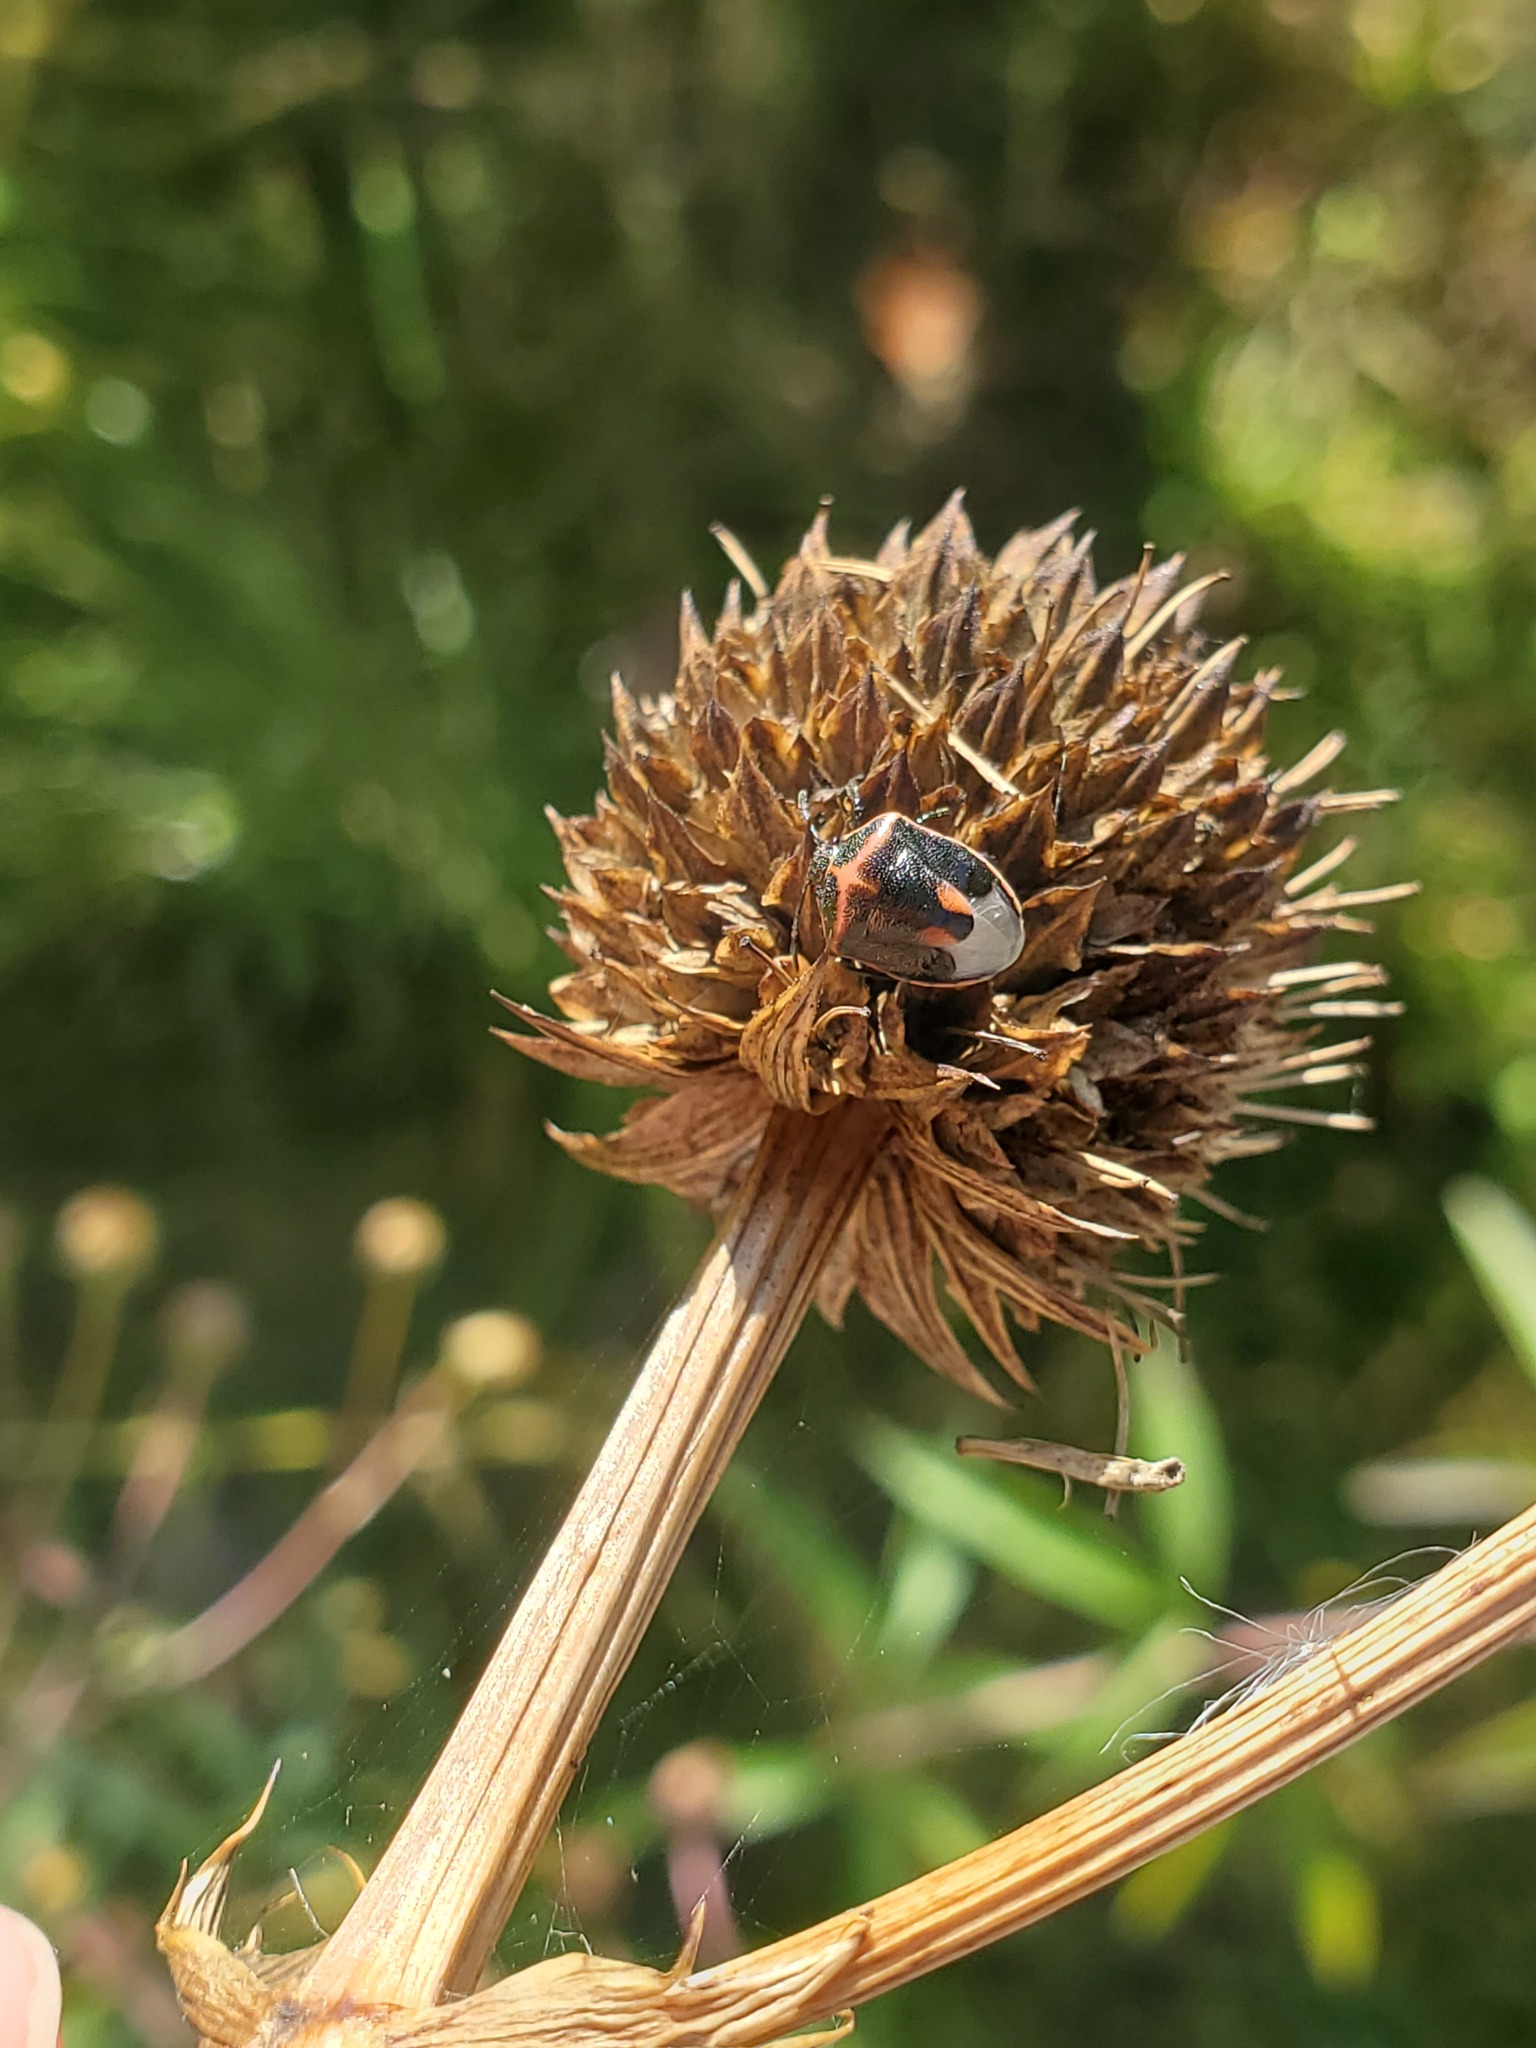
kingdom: Animalia
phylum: Arthropoda
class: Insecta
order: Hemiptera
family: Pentatomidae
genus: Cosmopepla
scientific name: Cosmopepla lintneriana
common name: Twice-stabbed stink bug
